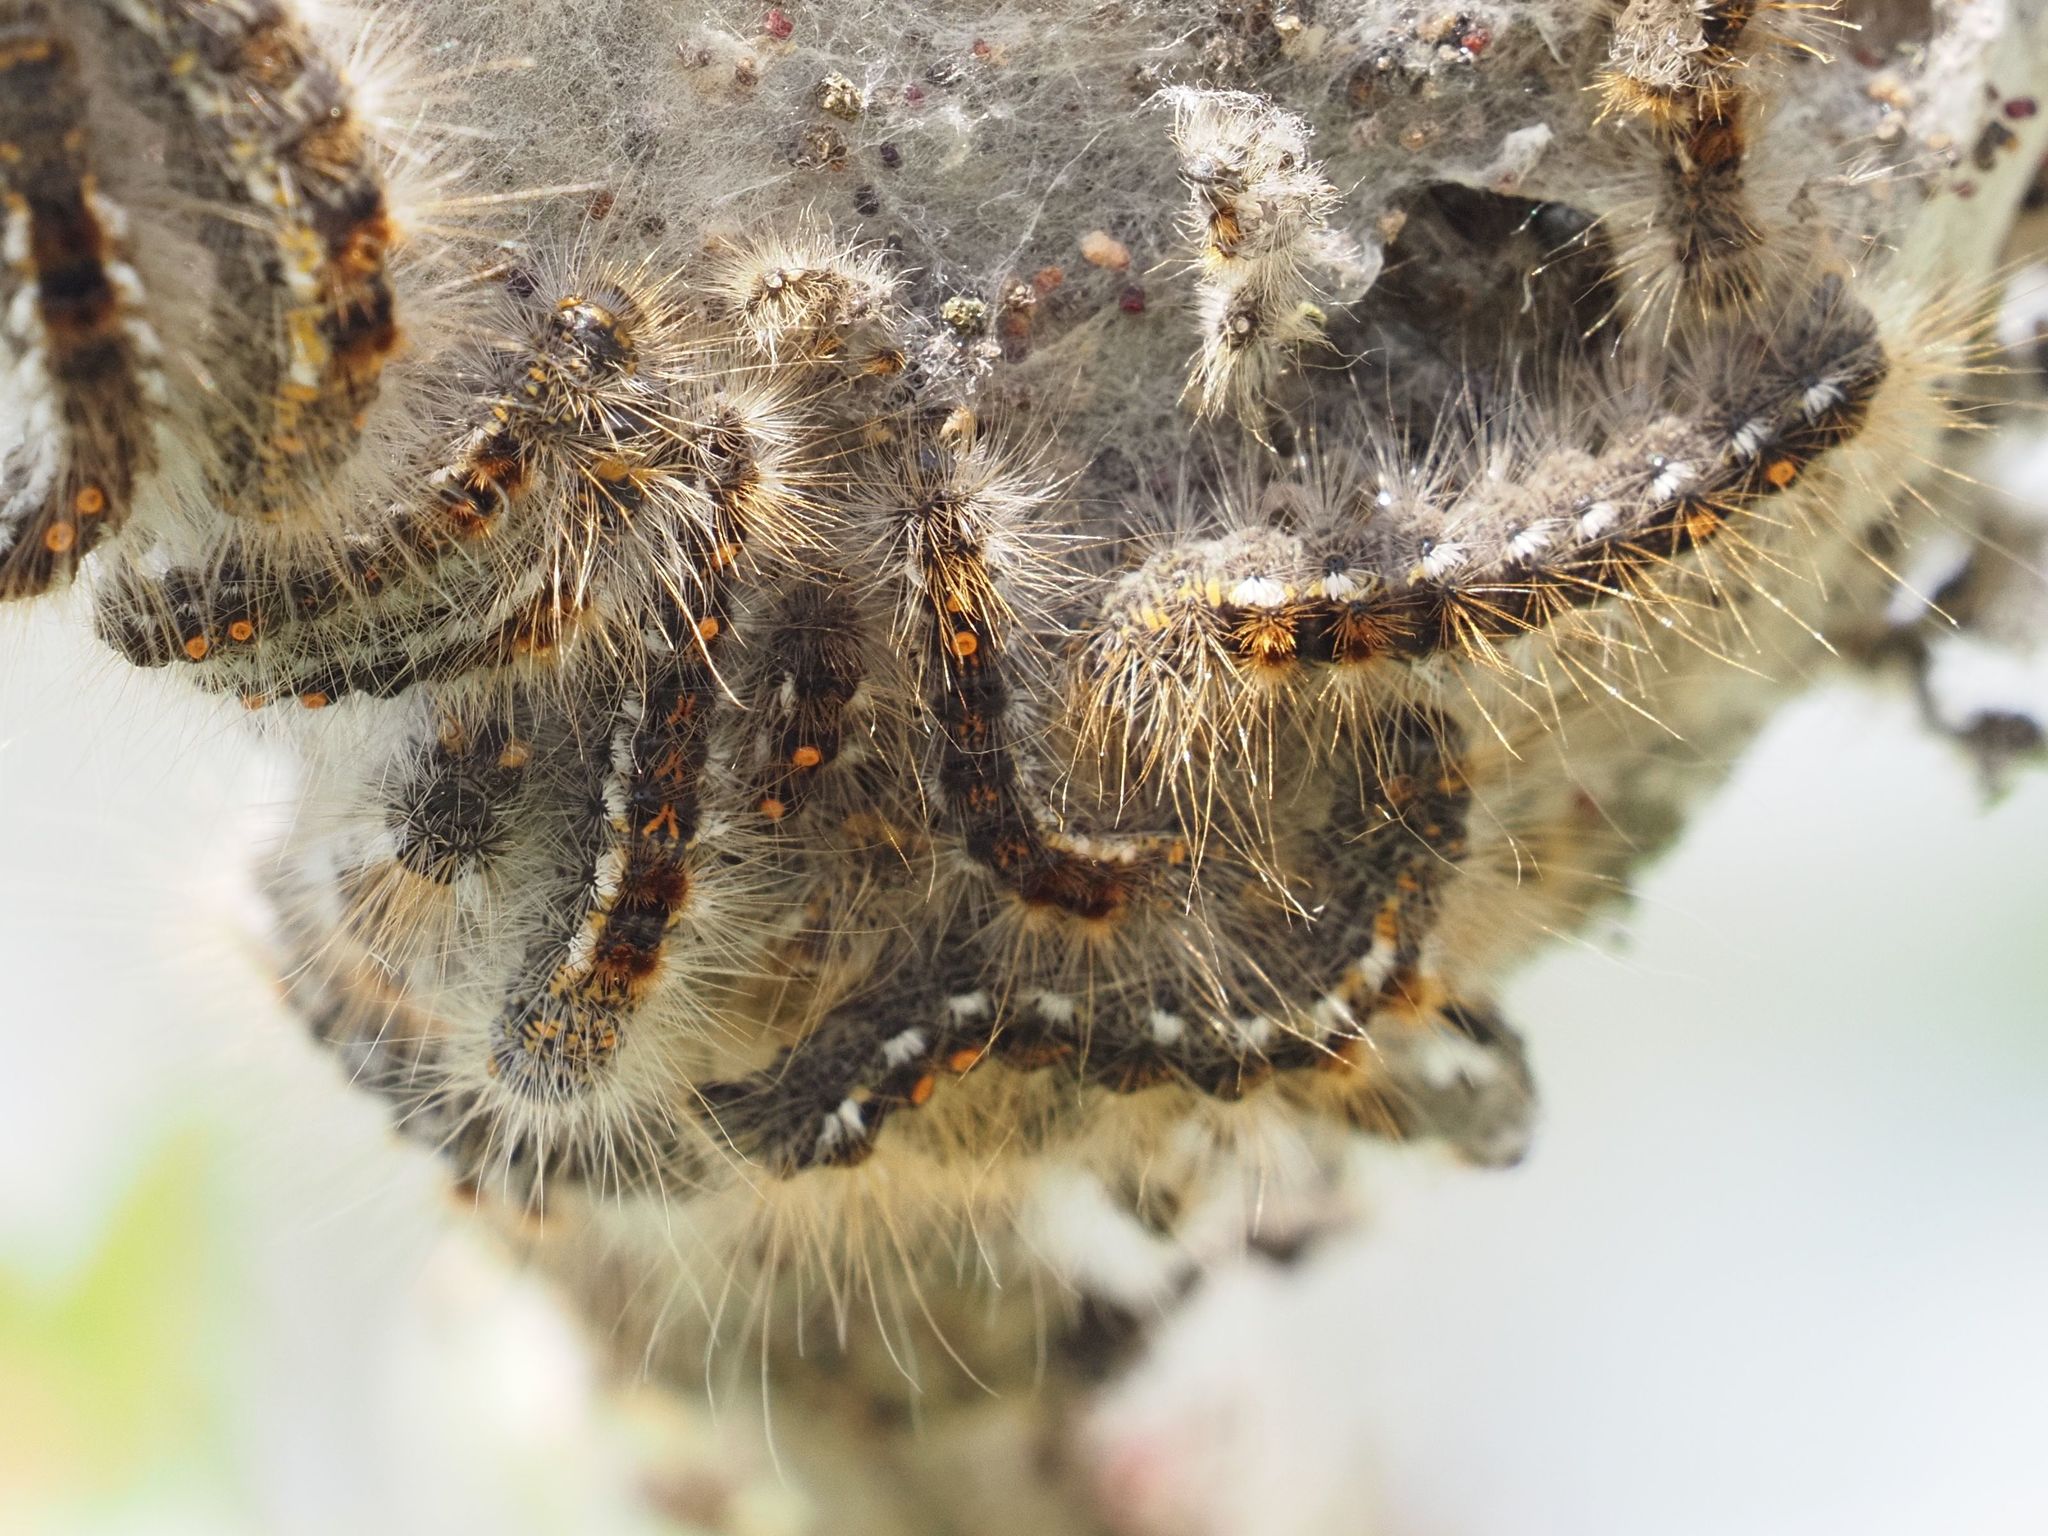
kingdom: Animalia
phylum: Arthropoda
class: Insecta
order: Lepidoptera
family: Erebidae
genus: Euproctis
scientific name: Euproctis chrysorrhoea
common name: Brown-tail
